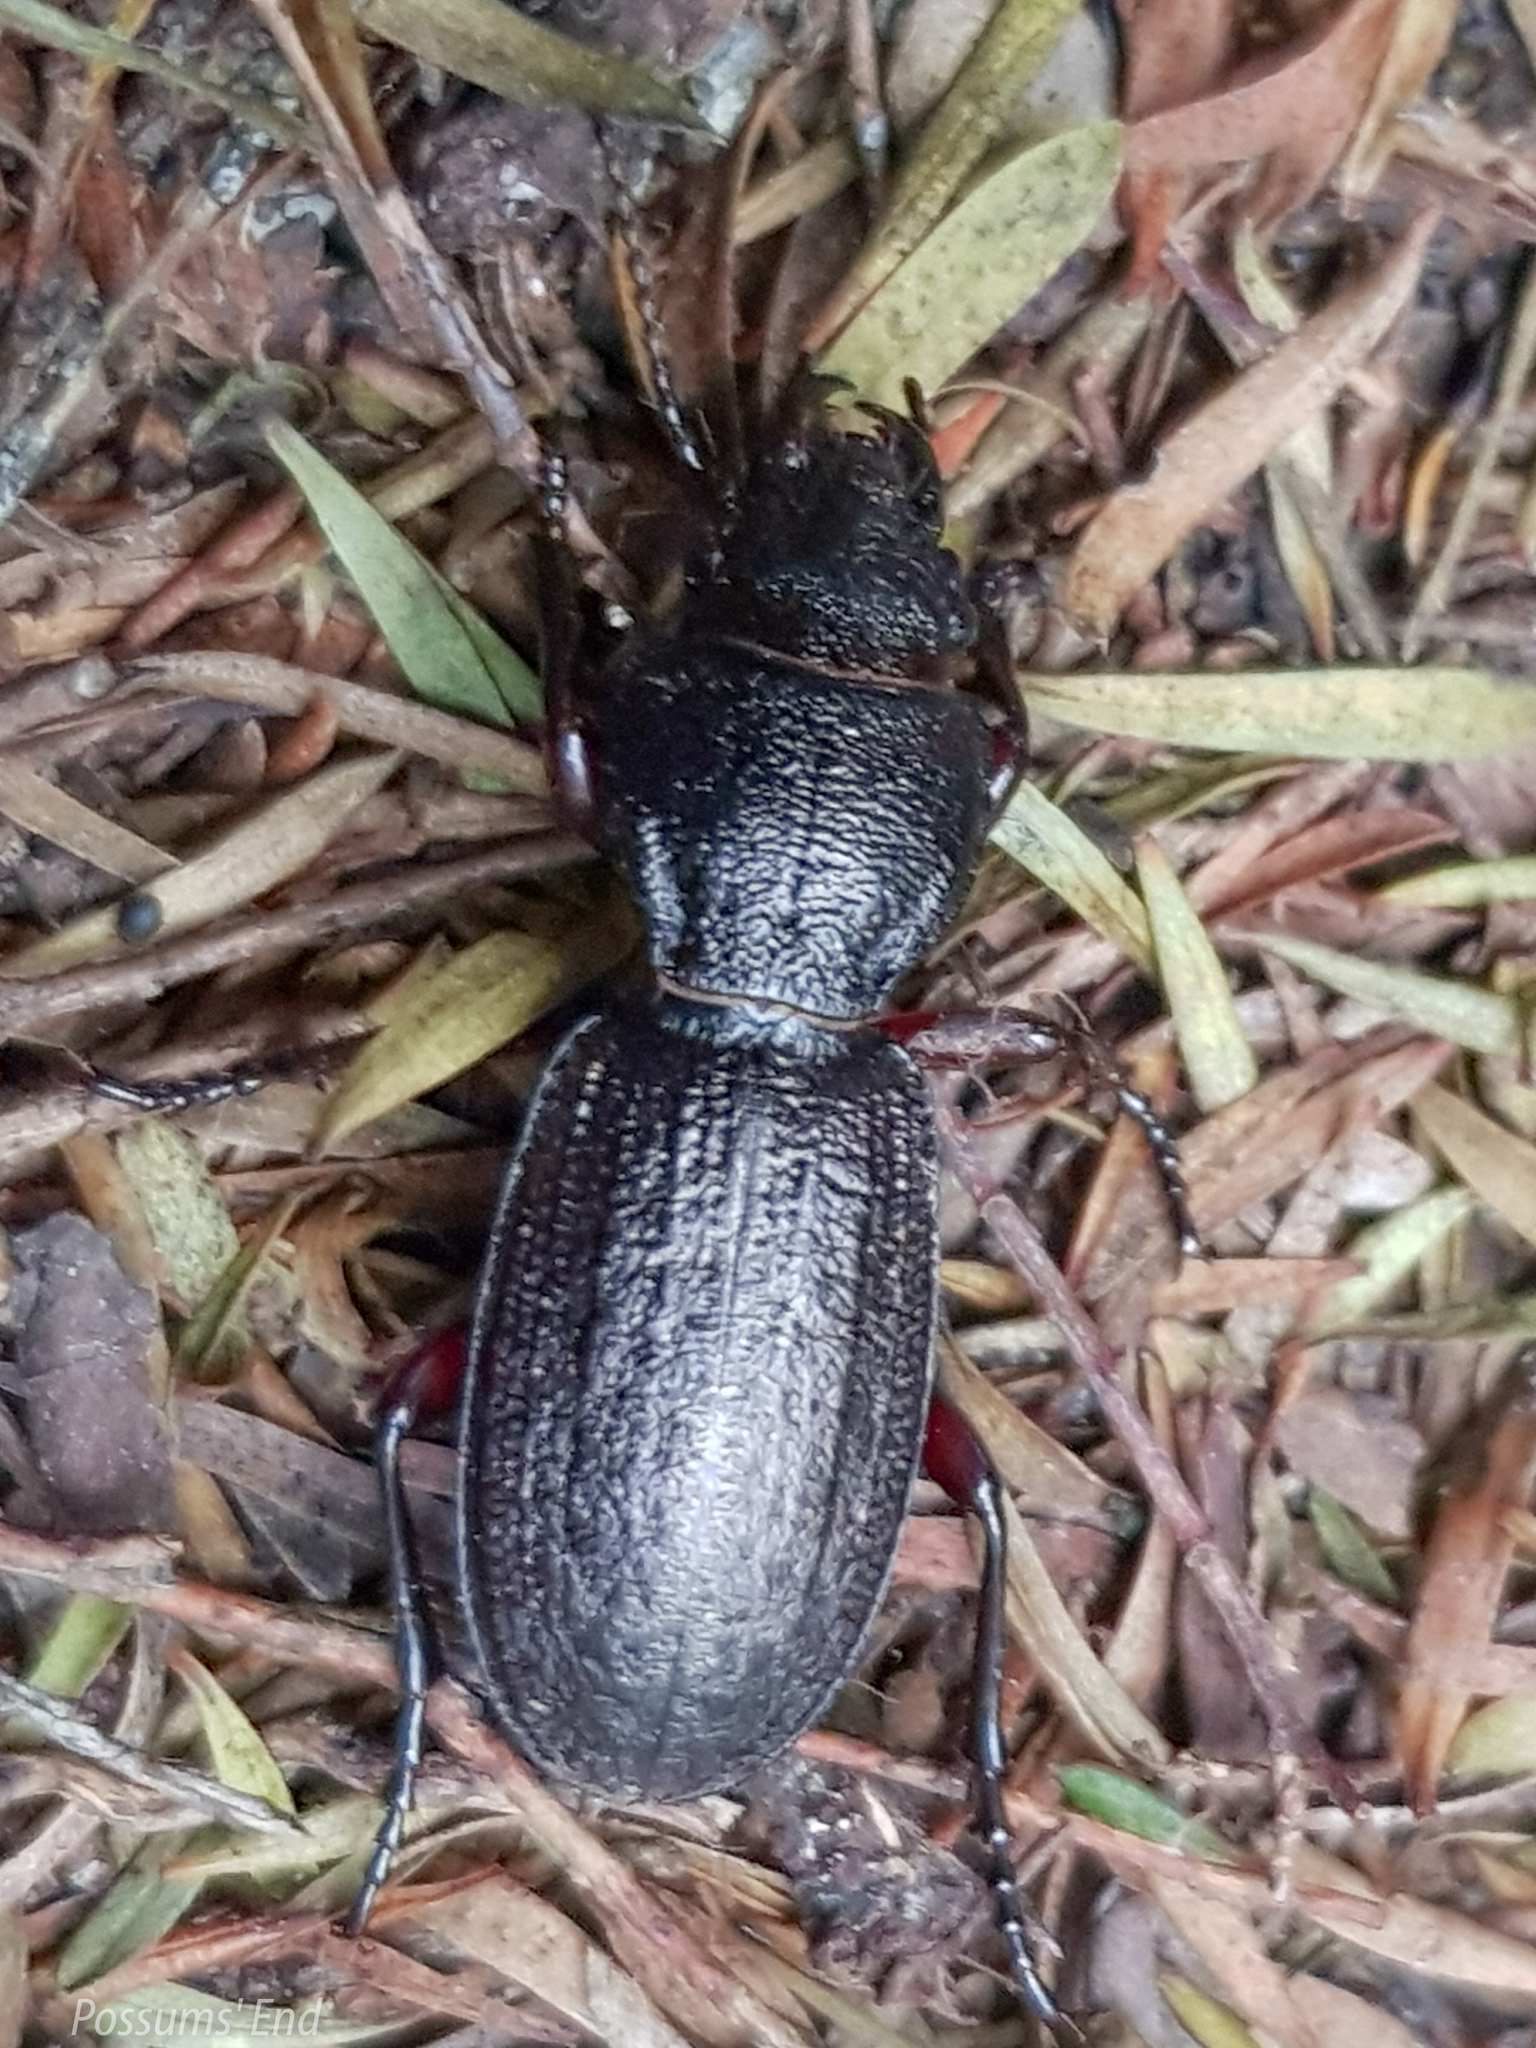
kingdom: Animalia
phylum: Arthropoda
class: Insecta
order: Coleoptera
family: Carabidae
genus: Mecodema
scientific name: Mecodema sculpturatum
